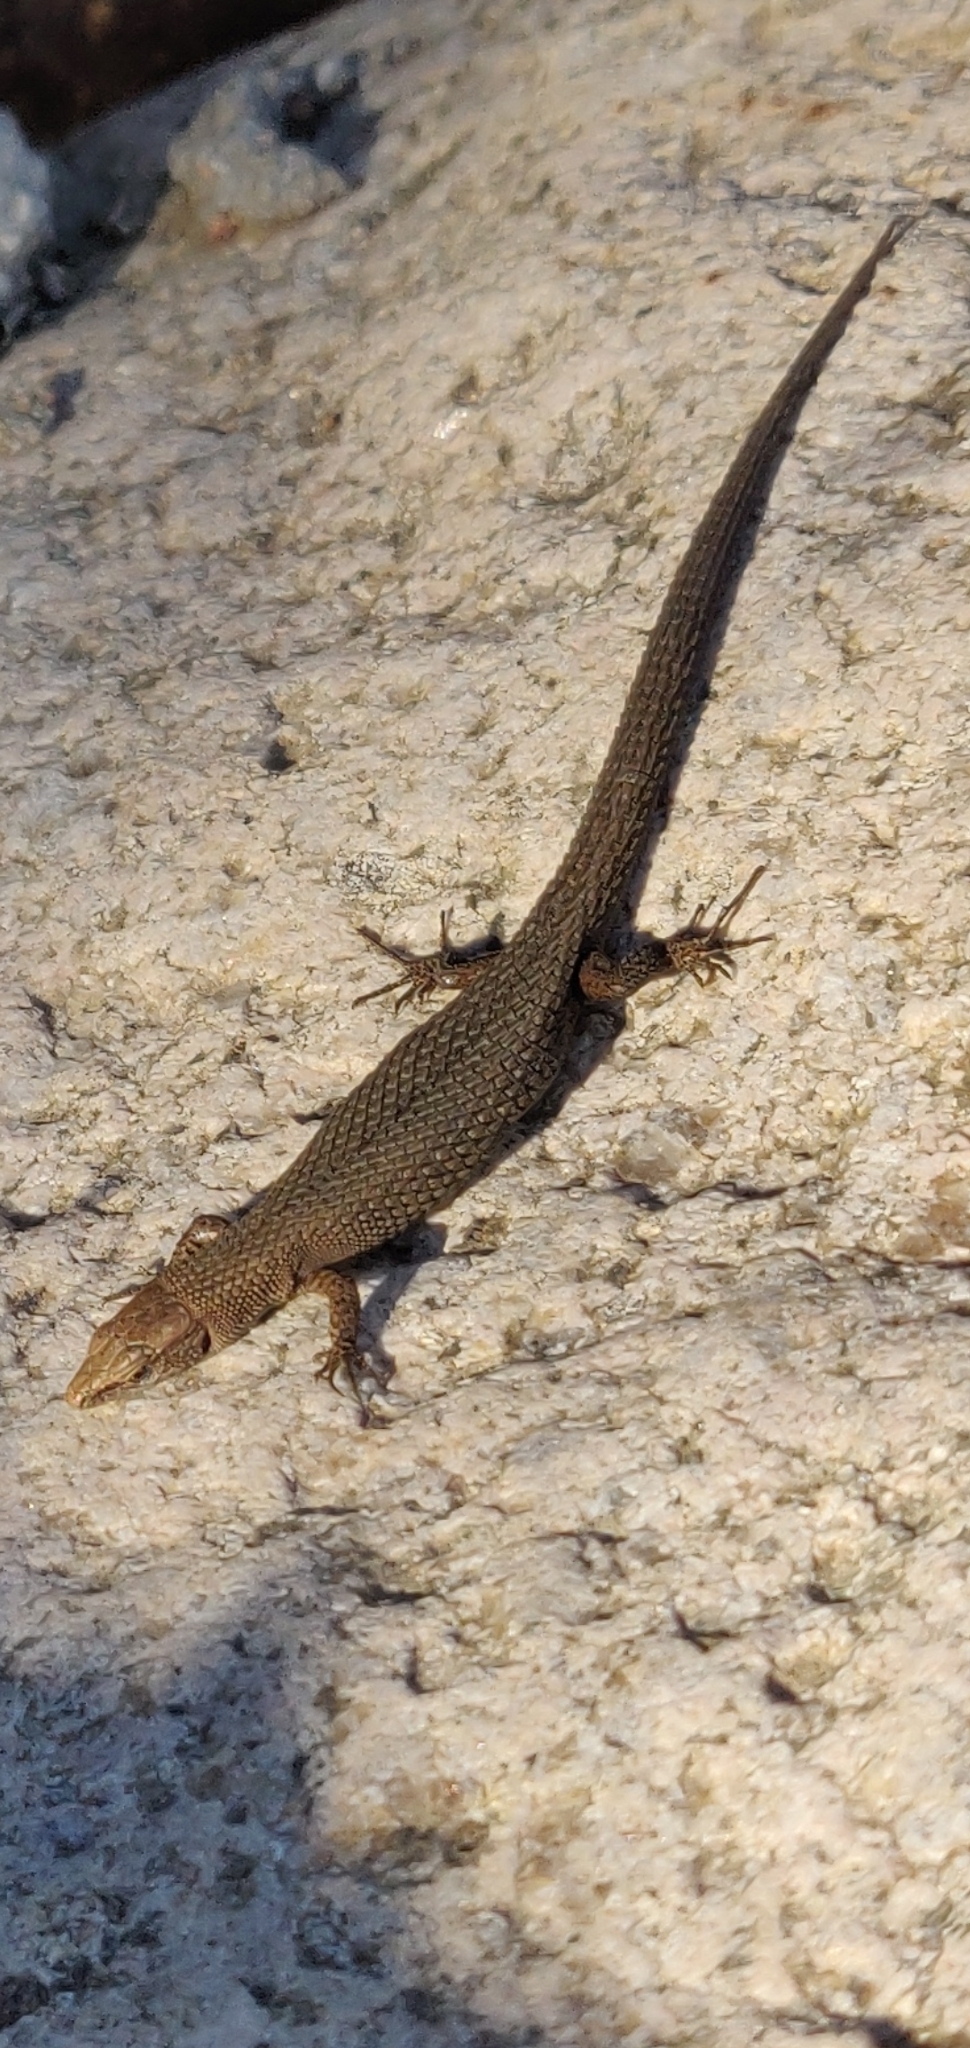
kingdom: Animalia
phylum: Chordata
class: Squamata
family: Lacertidae
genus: Algyroides
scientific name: Algyroides fitzingeri
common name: Fitzinger's algyroides
